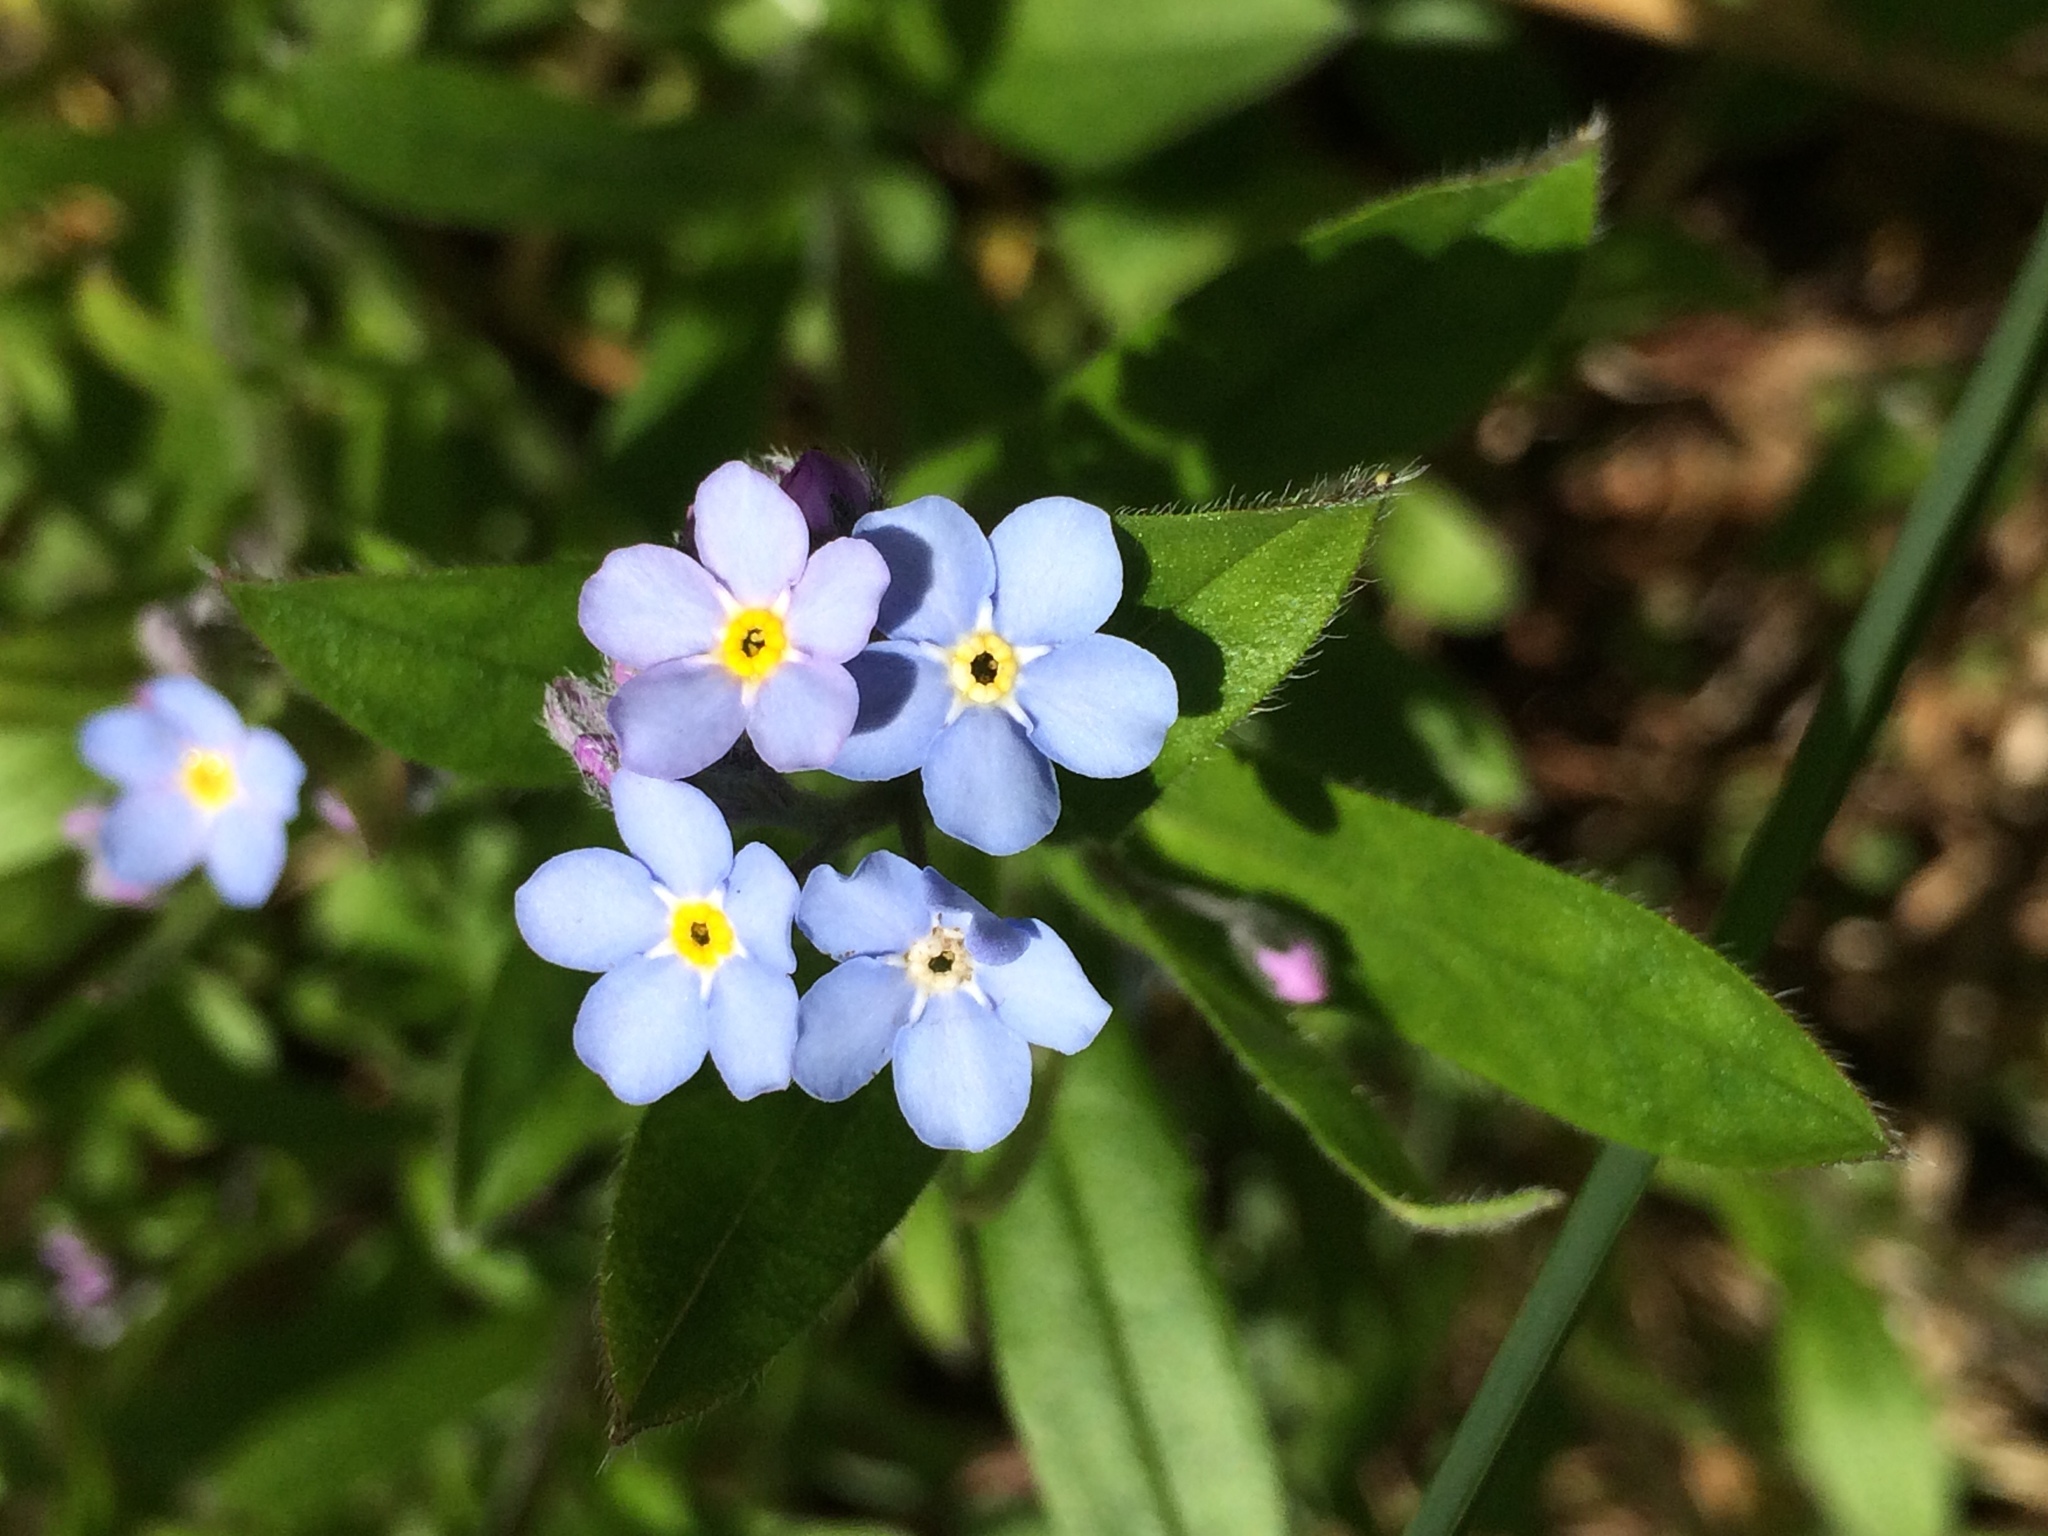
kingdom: Plantae
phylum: Tracheophyta
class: Magnoliopsida
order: Boraginales
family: Boraginaceae
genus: Myosotis
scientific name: Myosotis sylvatica
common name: Wood forget-me-not
